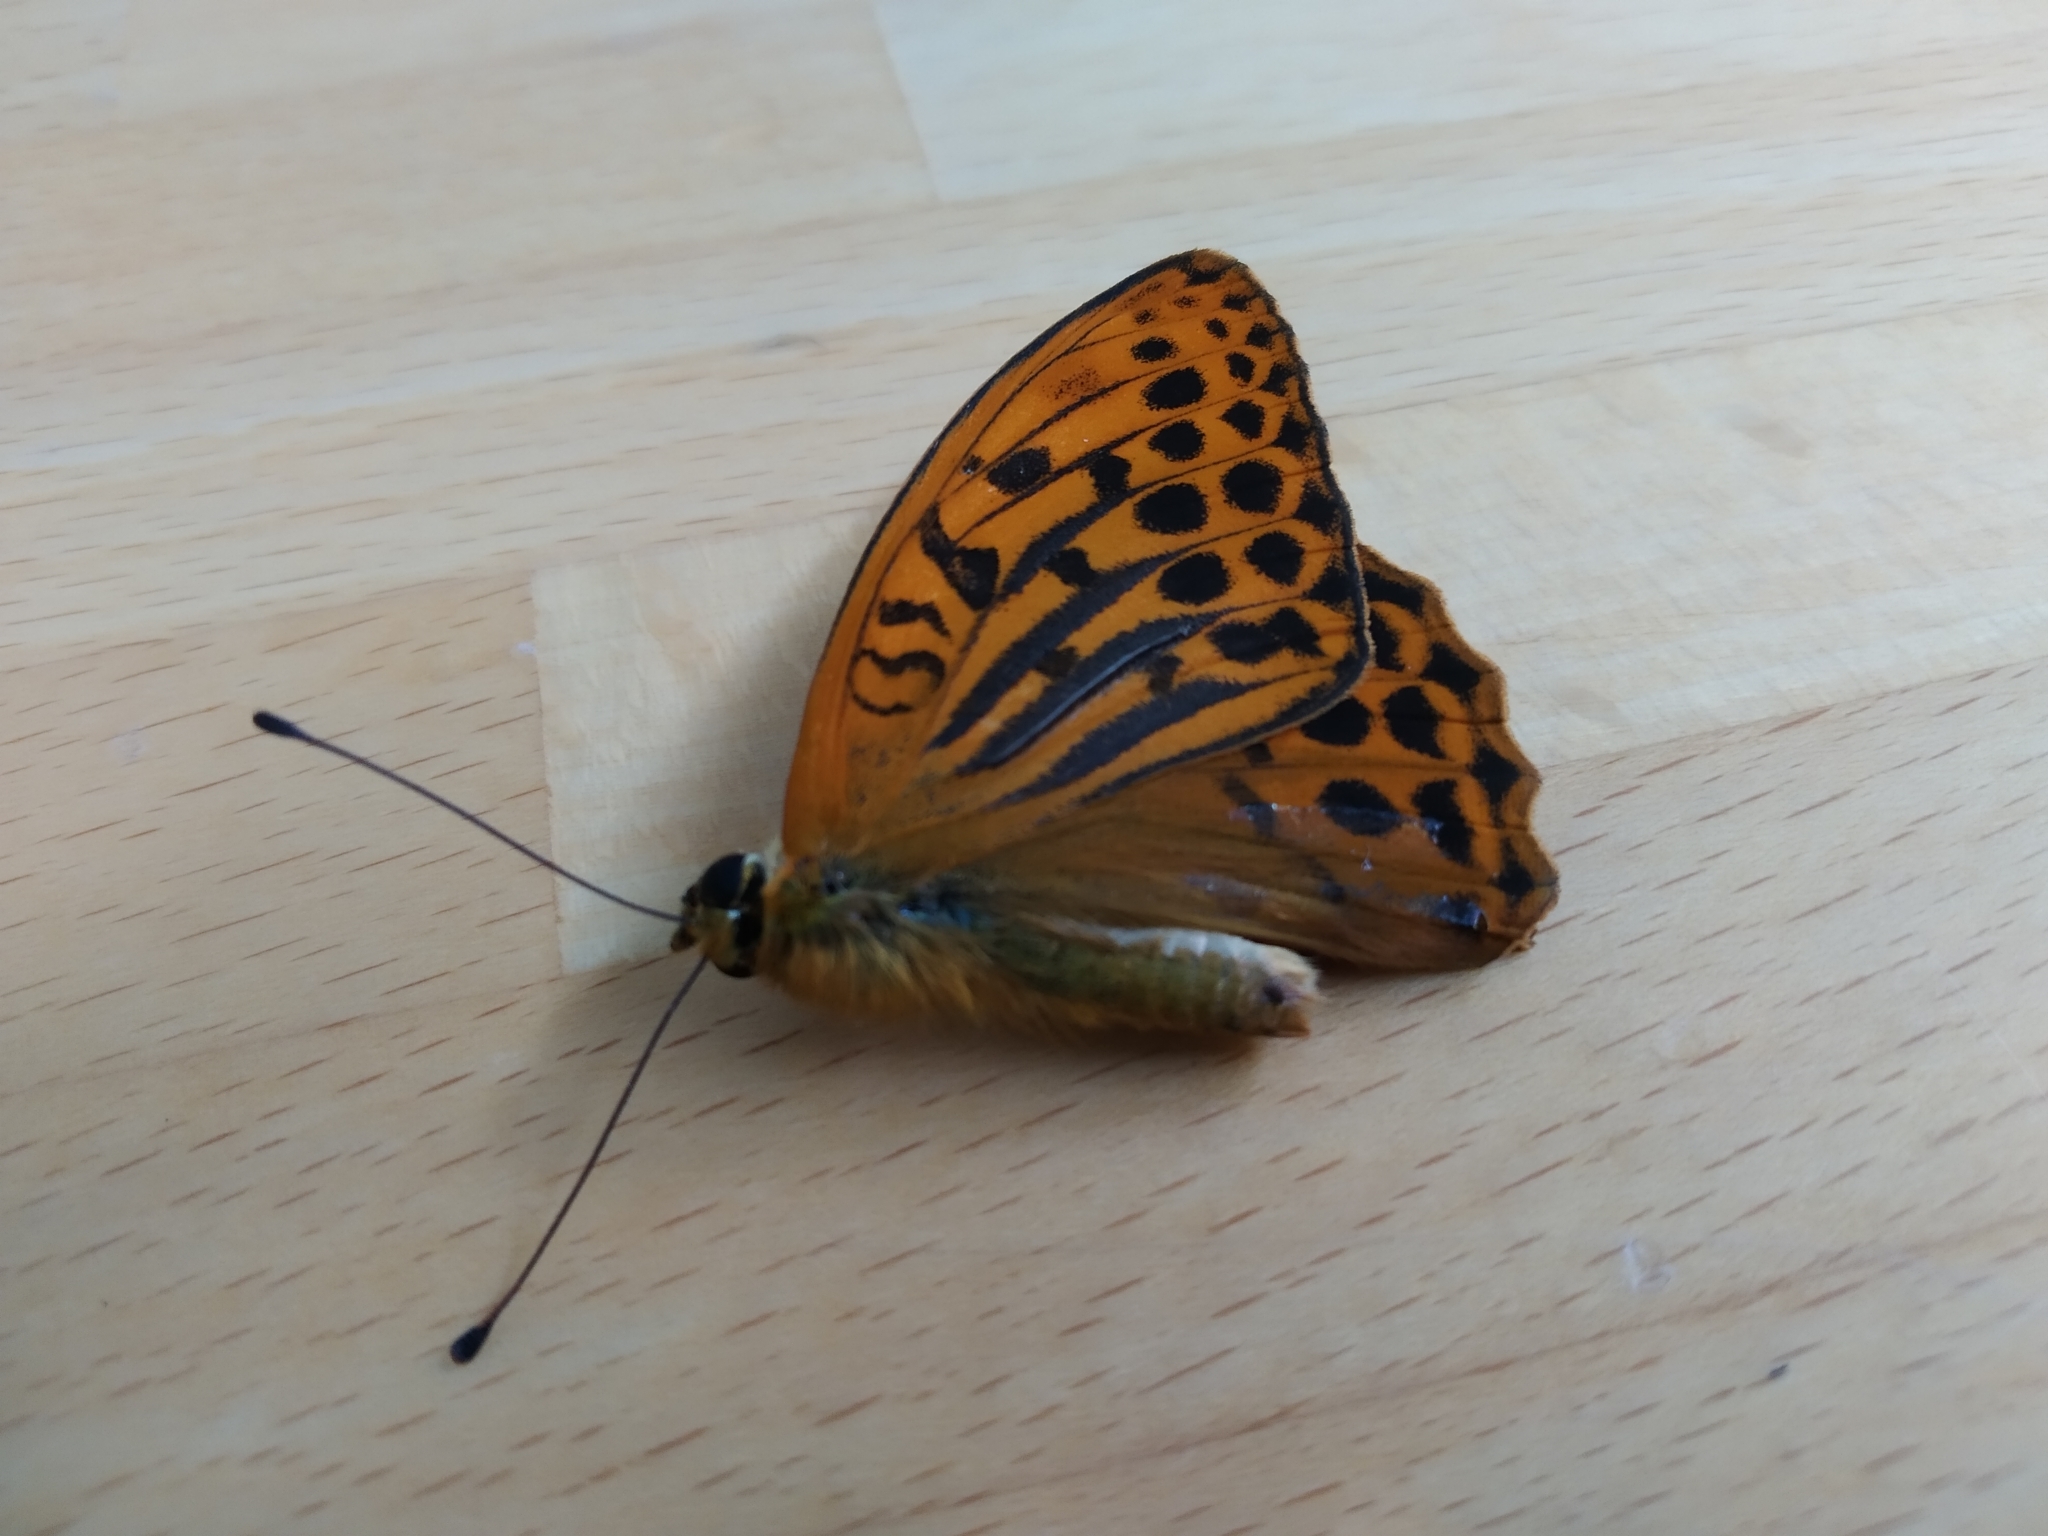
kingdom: Animalia
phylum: Arthropoda
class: Insecta
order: Lepidoptera
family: Nymphalidae
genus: Argynnis
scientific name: Argynnis paphia
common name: Silver-washed fritillary
